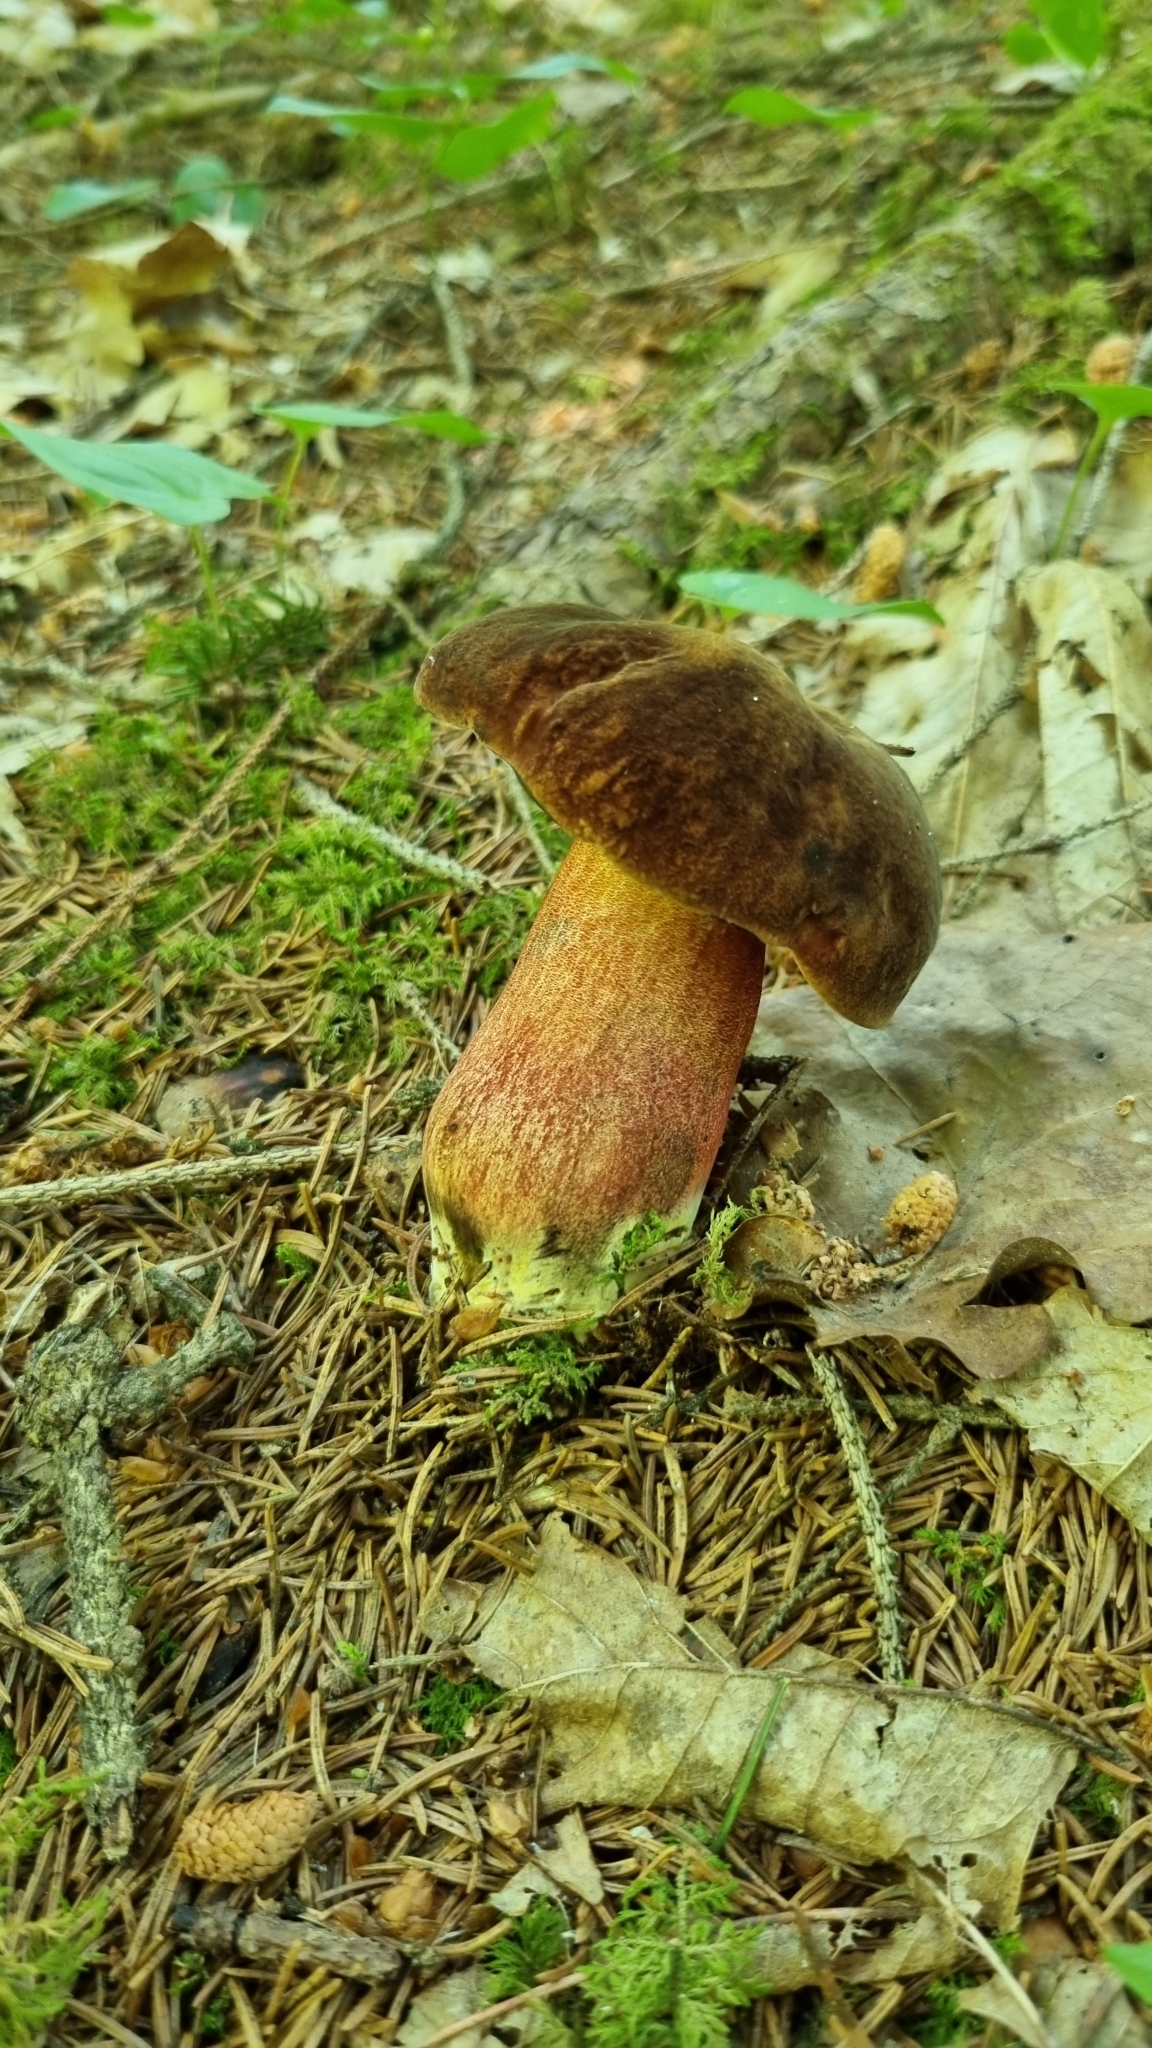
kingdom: Fungi
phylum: Basidiomycota
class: Agaricomycetes
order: Boletales
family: Boletaceae
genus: Neoboletus
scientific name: Neoboletus erythropus
